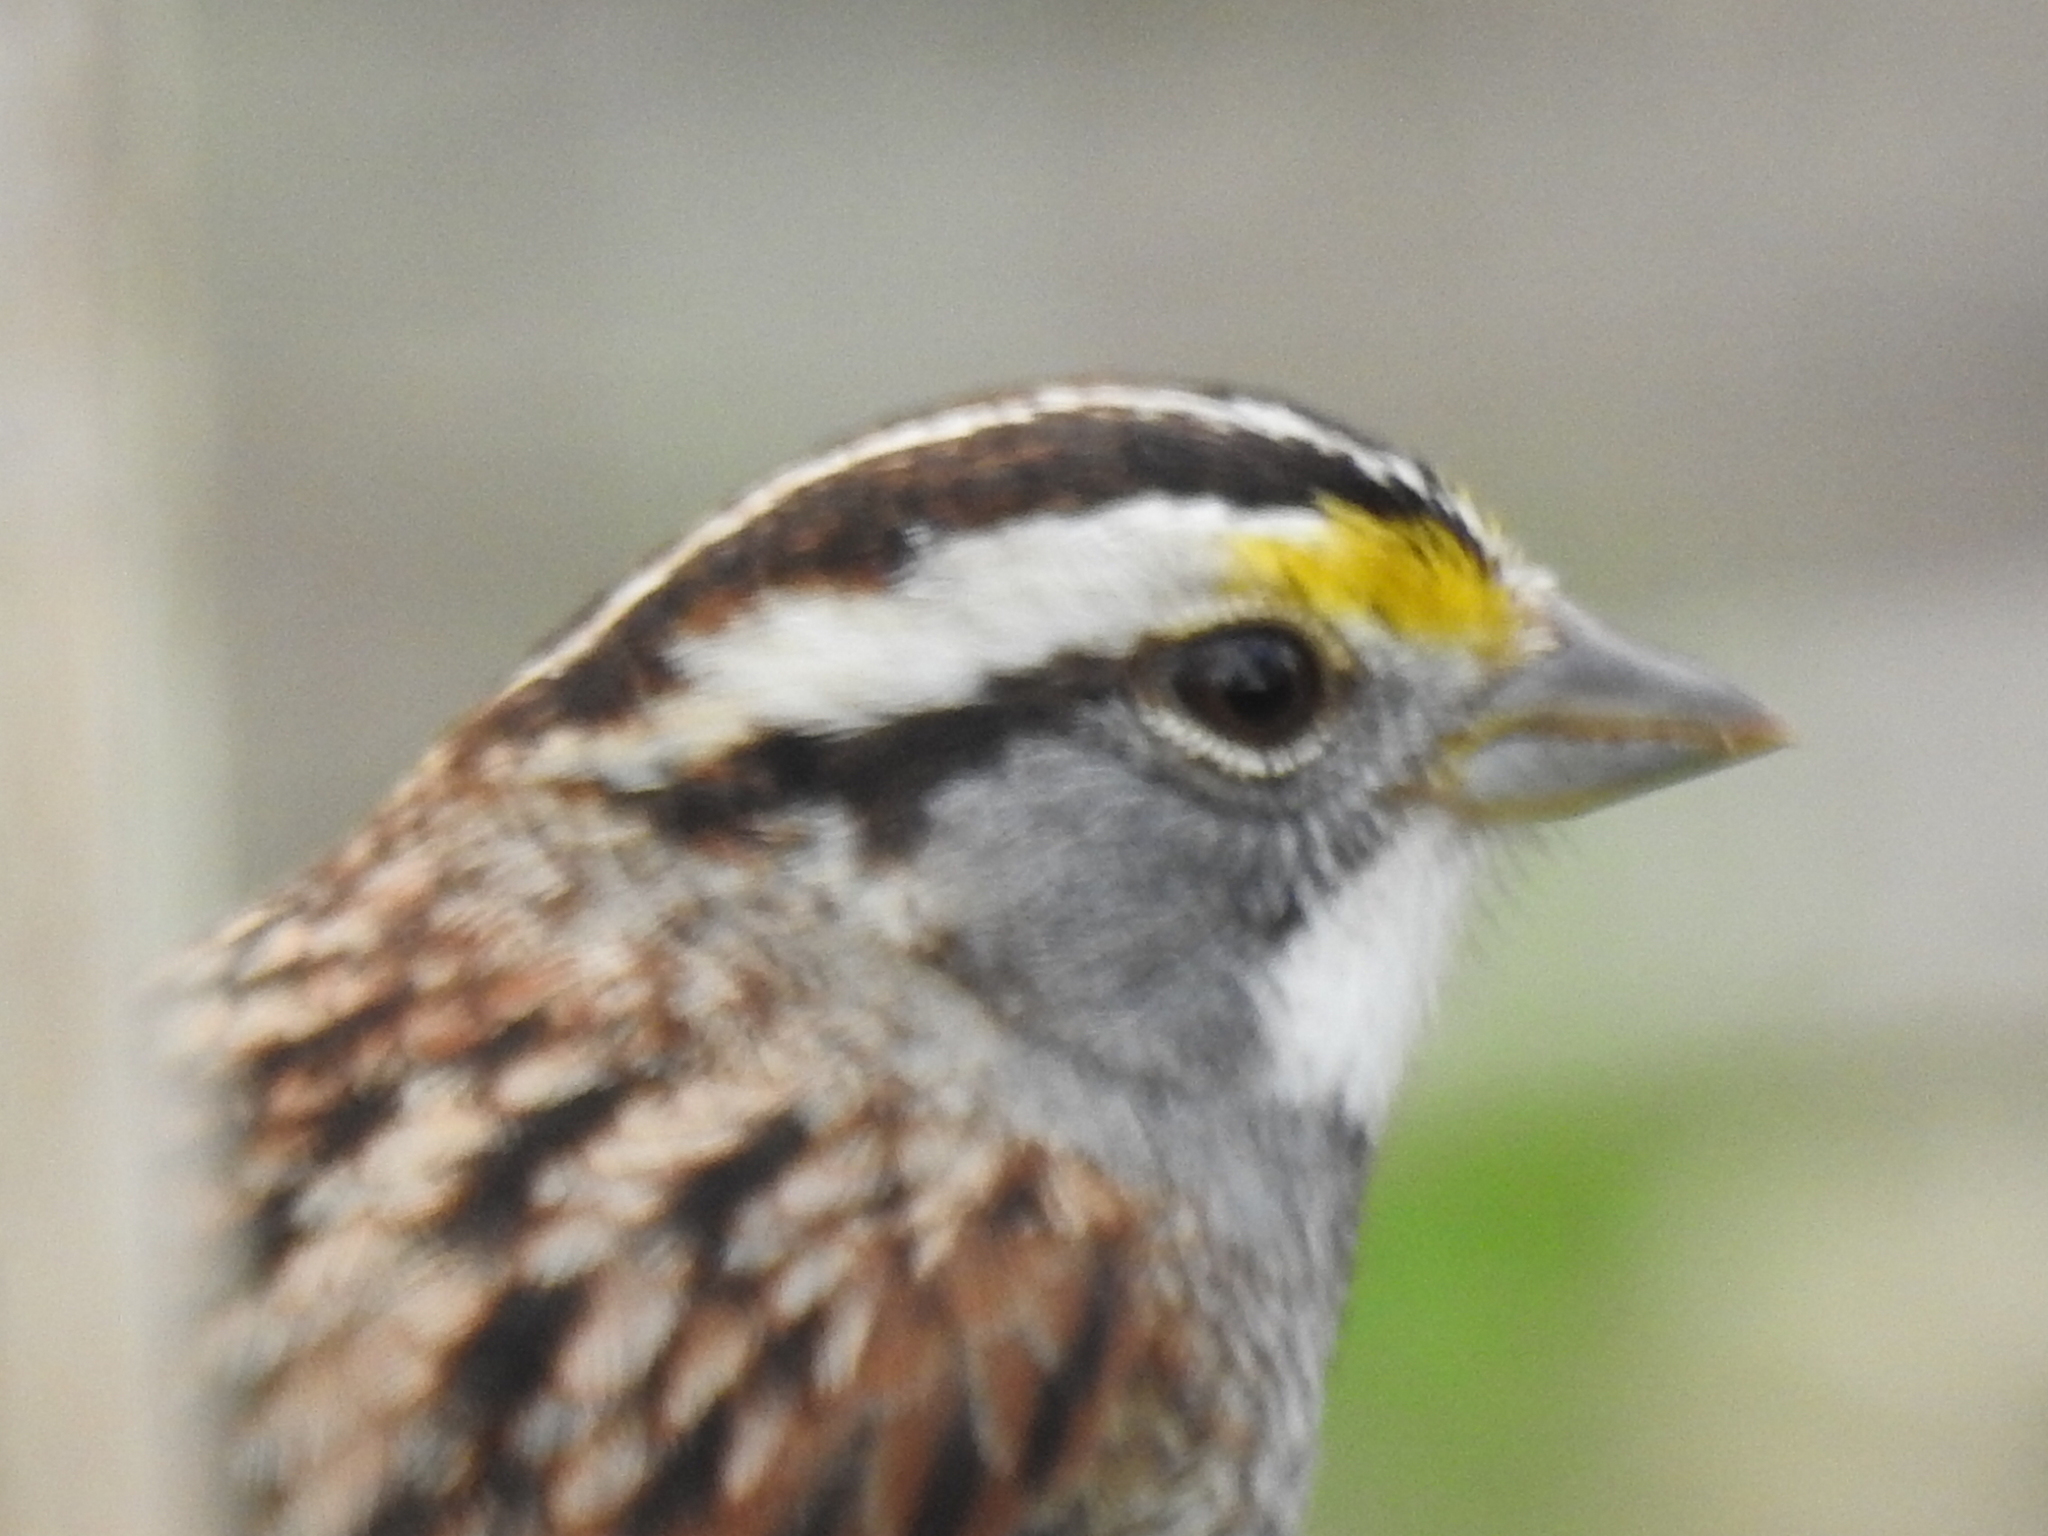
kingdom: Animalia
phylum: Chordata
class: Aves
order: Passeriformes
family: Passerellidae
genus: Zonotrichia
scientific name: Zonotrichia albicollis
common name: White-throated sparrow
